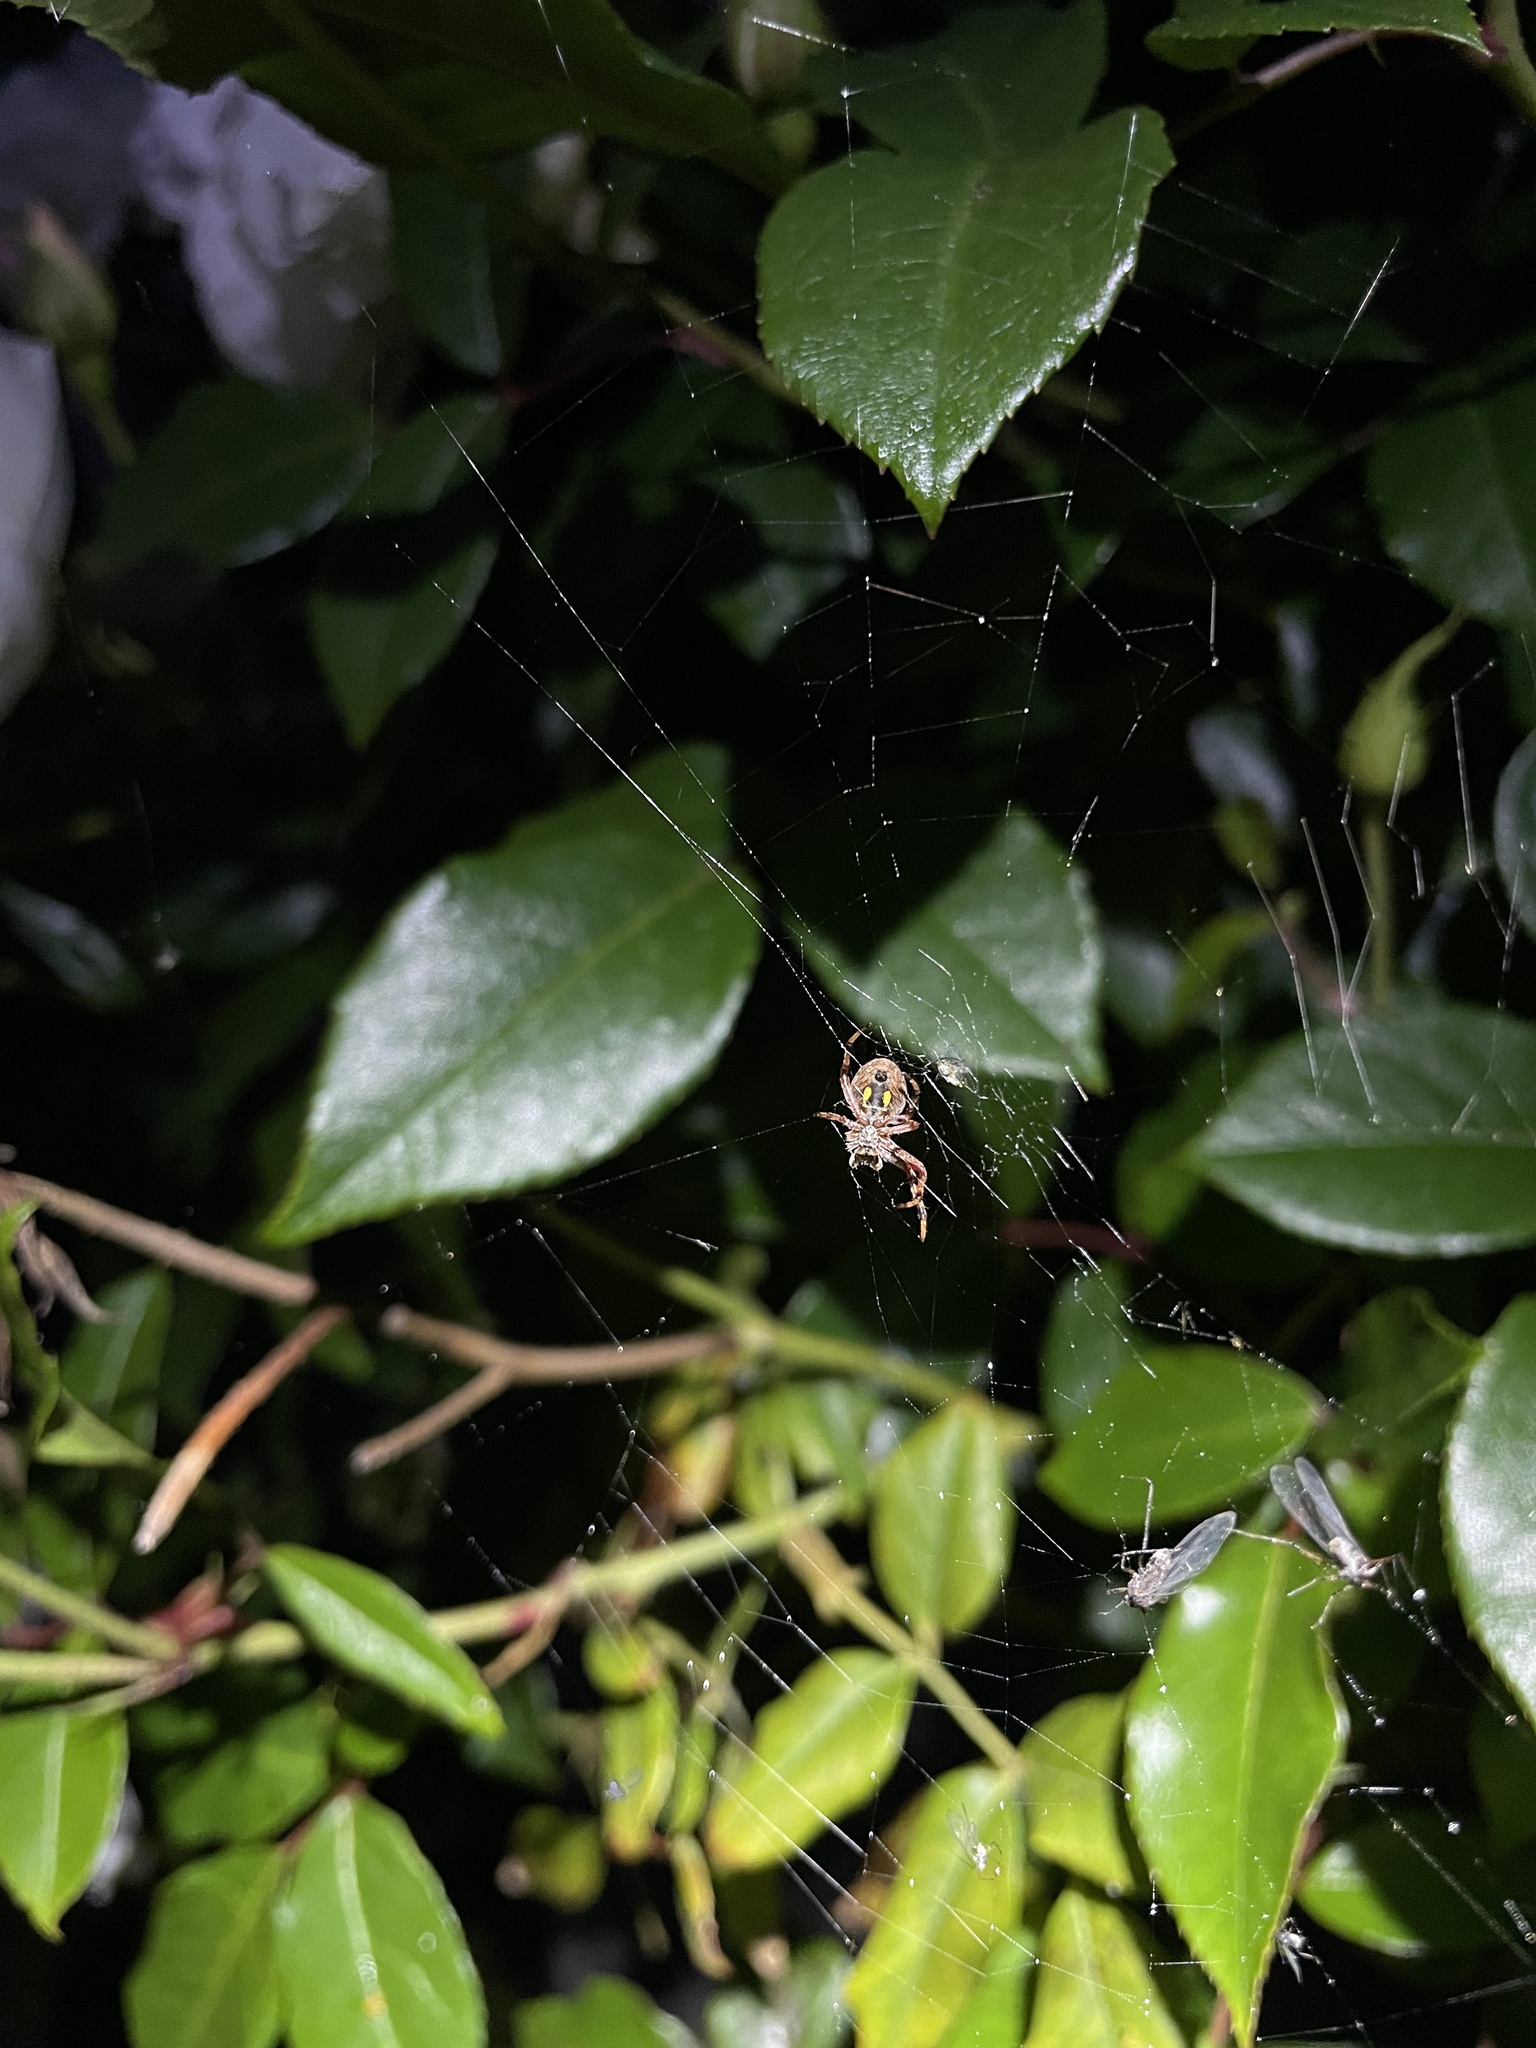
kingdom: Animalia
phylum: Arthropoda
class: Arachnida
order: Araneae
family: Araneidae
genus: Salsa
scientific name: Salsa fuliginata
